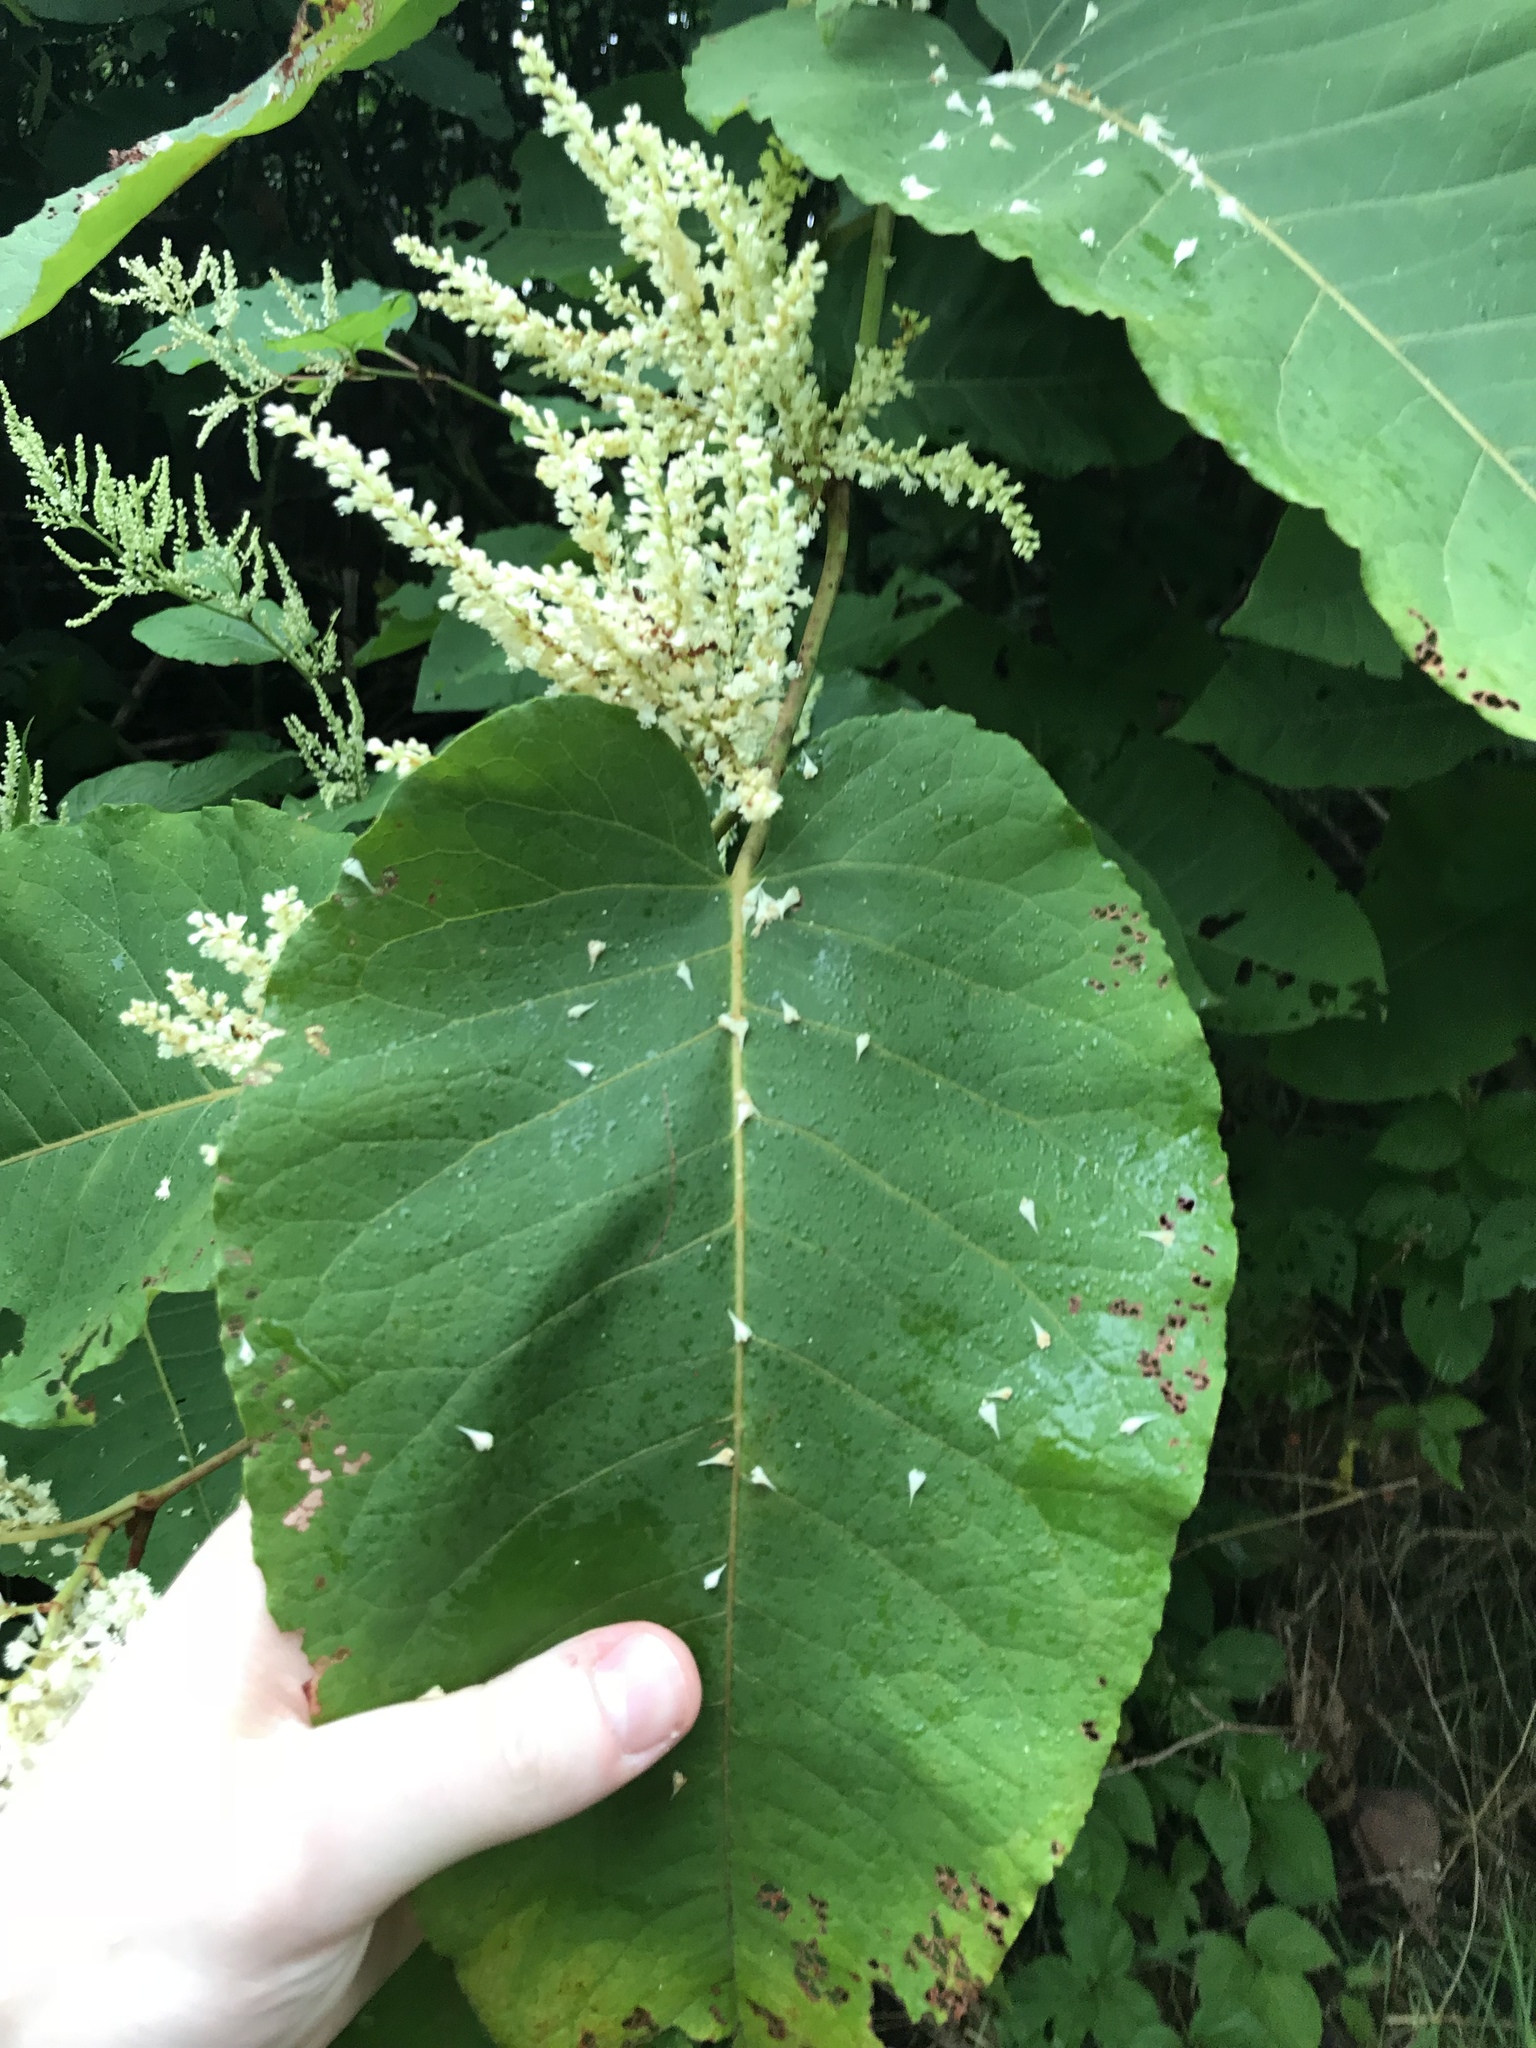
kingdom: Plantae
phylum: Tracheophyta
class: Magnoliopsida
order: Caryophyllales
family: Polygonaceae
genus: Reynoutria
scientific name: Reynoutria sachalinensis
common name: Giant knotweed
